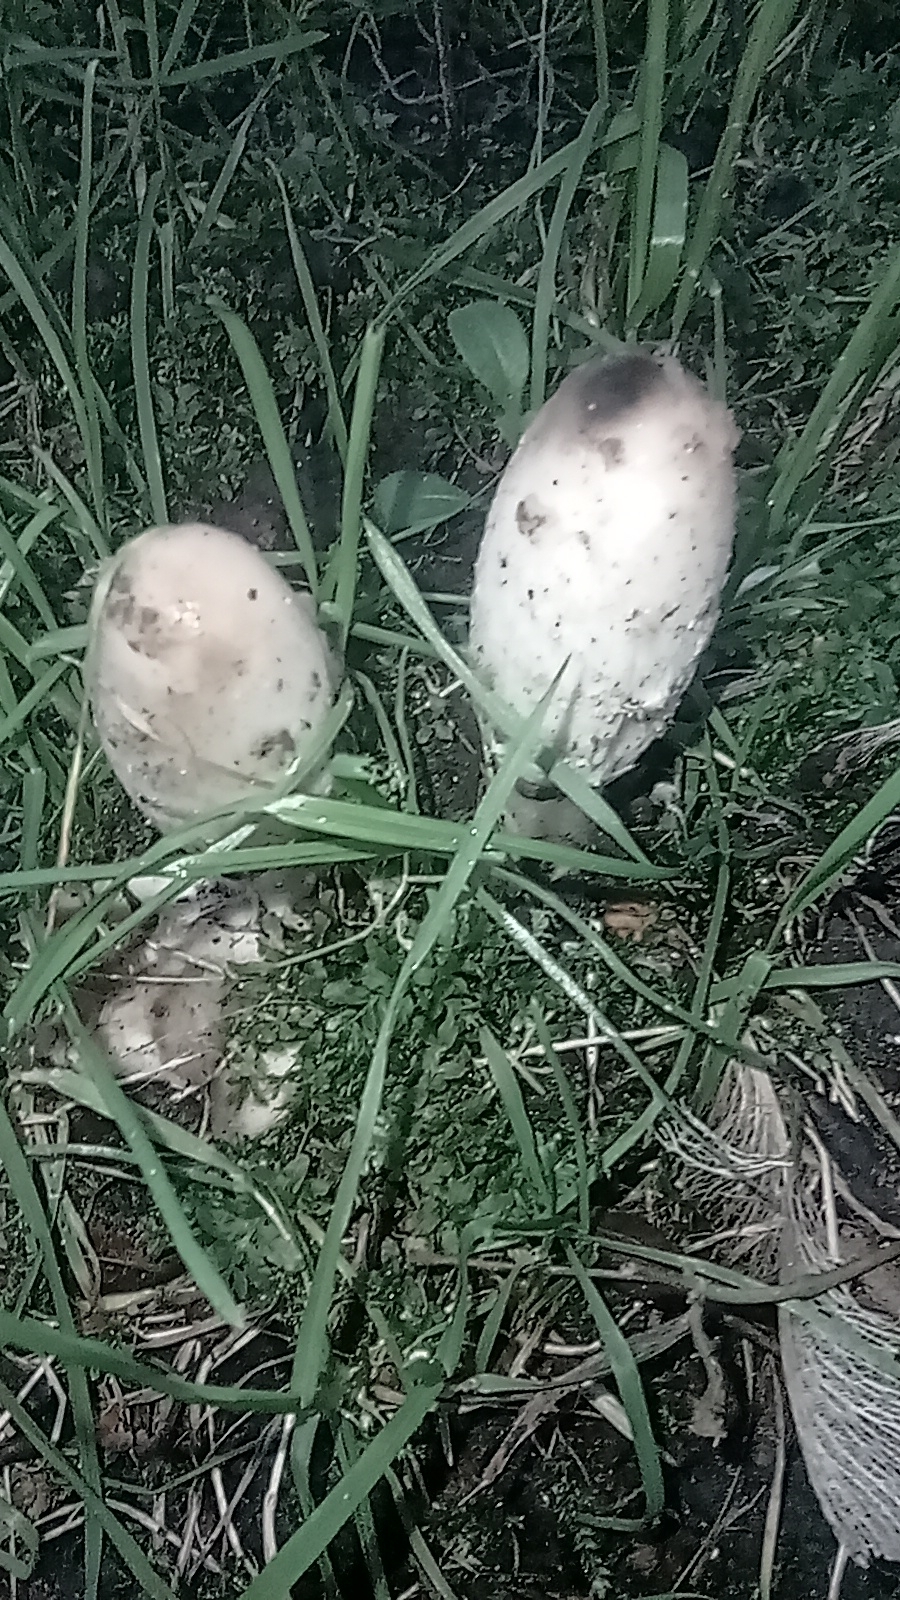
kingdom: Fungi
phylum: Basidiomycota
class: Agaricomycetes
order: Agaricales
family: Agaricaceae
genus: Coprinus
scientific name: Coprinus comatus
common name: Lawyer's wig
